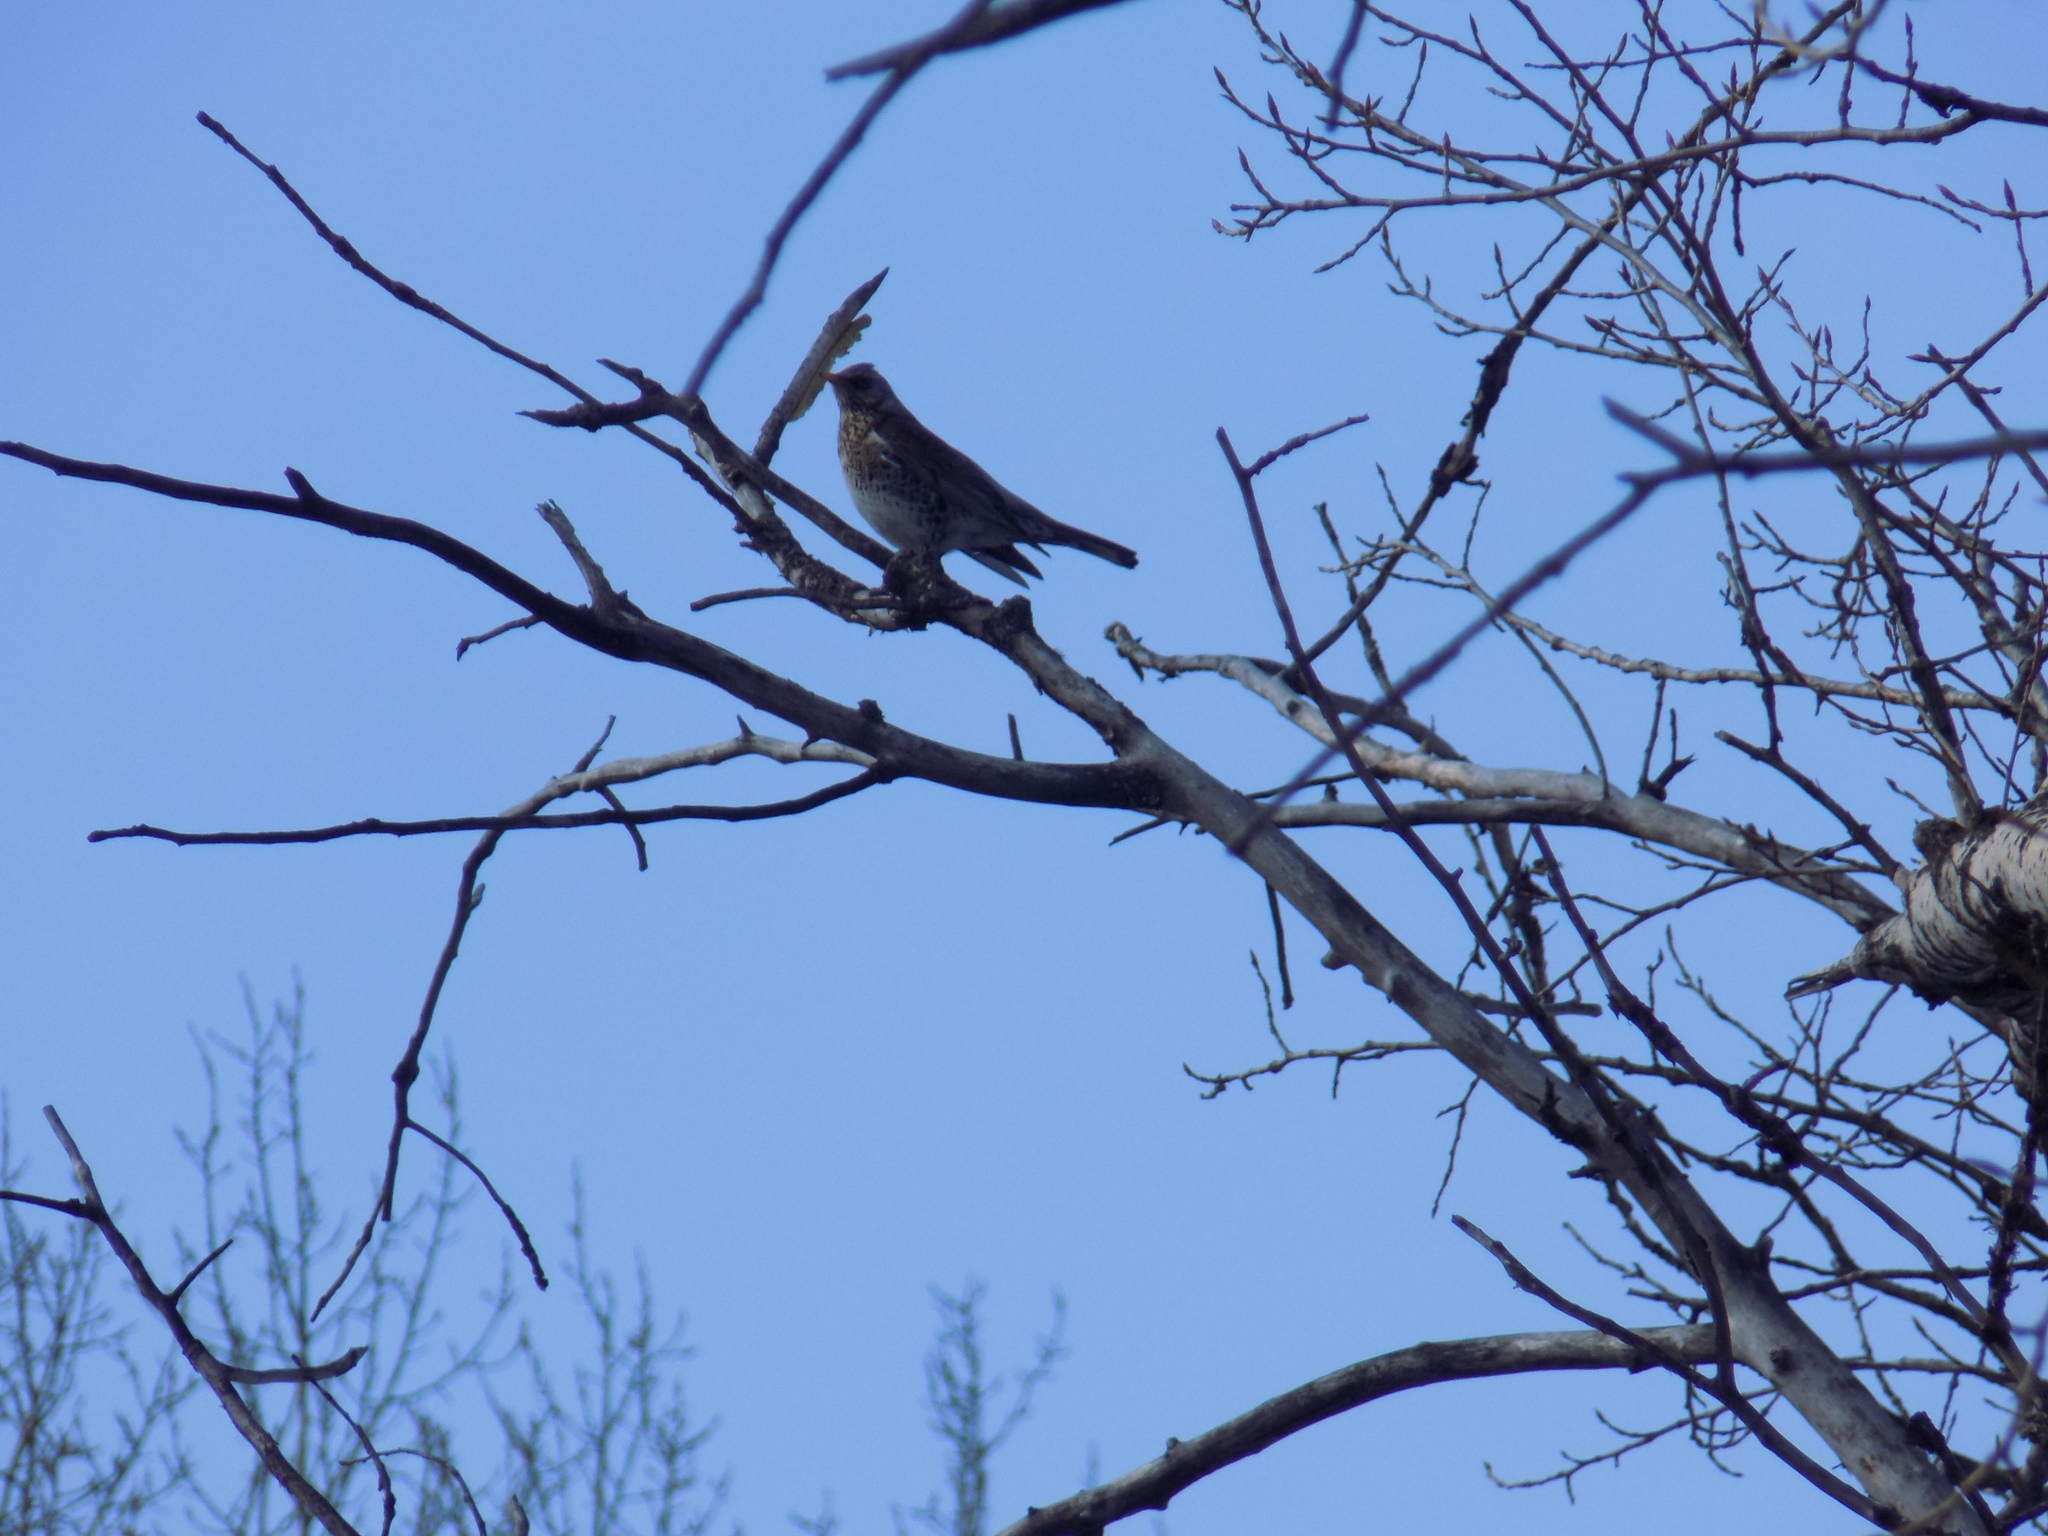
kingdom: Animalia
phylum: Chordata
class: Aves
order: Passeriformes
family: Turdidae
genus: Turdus
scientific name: Turdus pilaris
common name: Fieldfare
